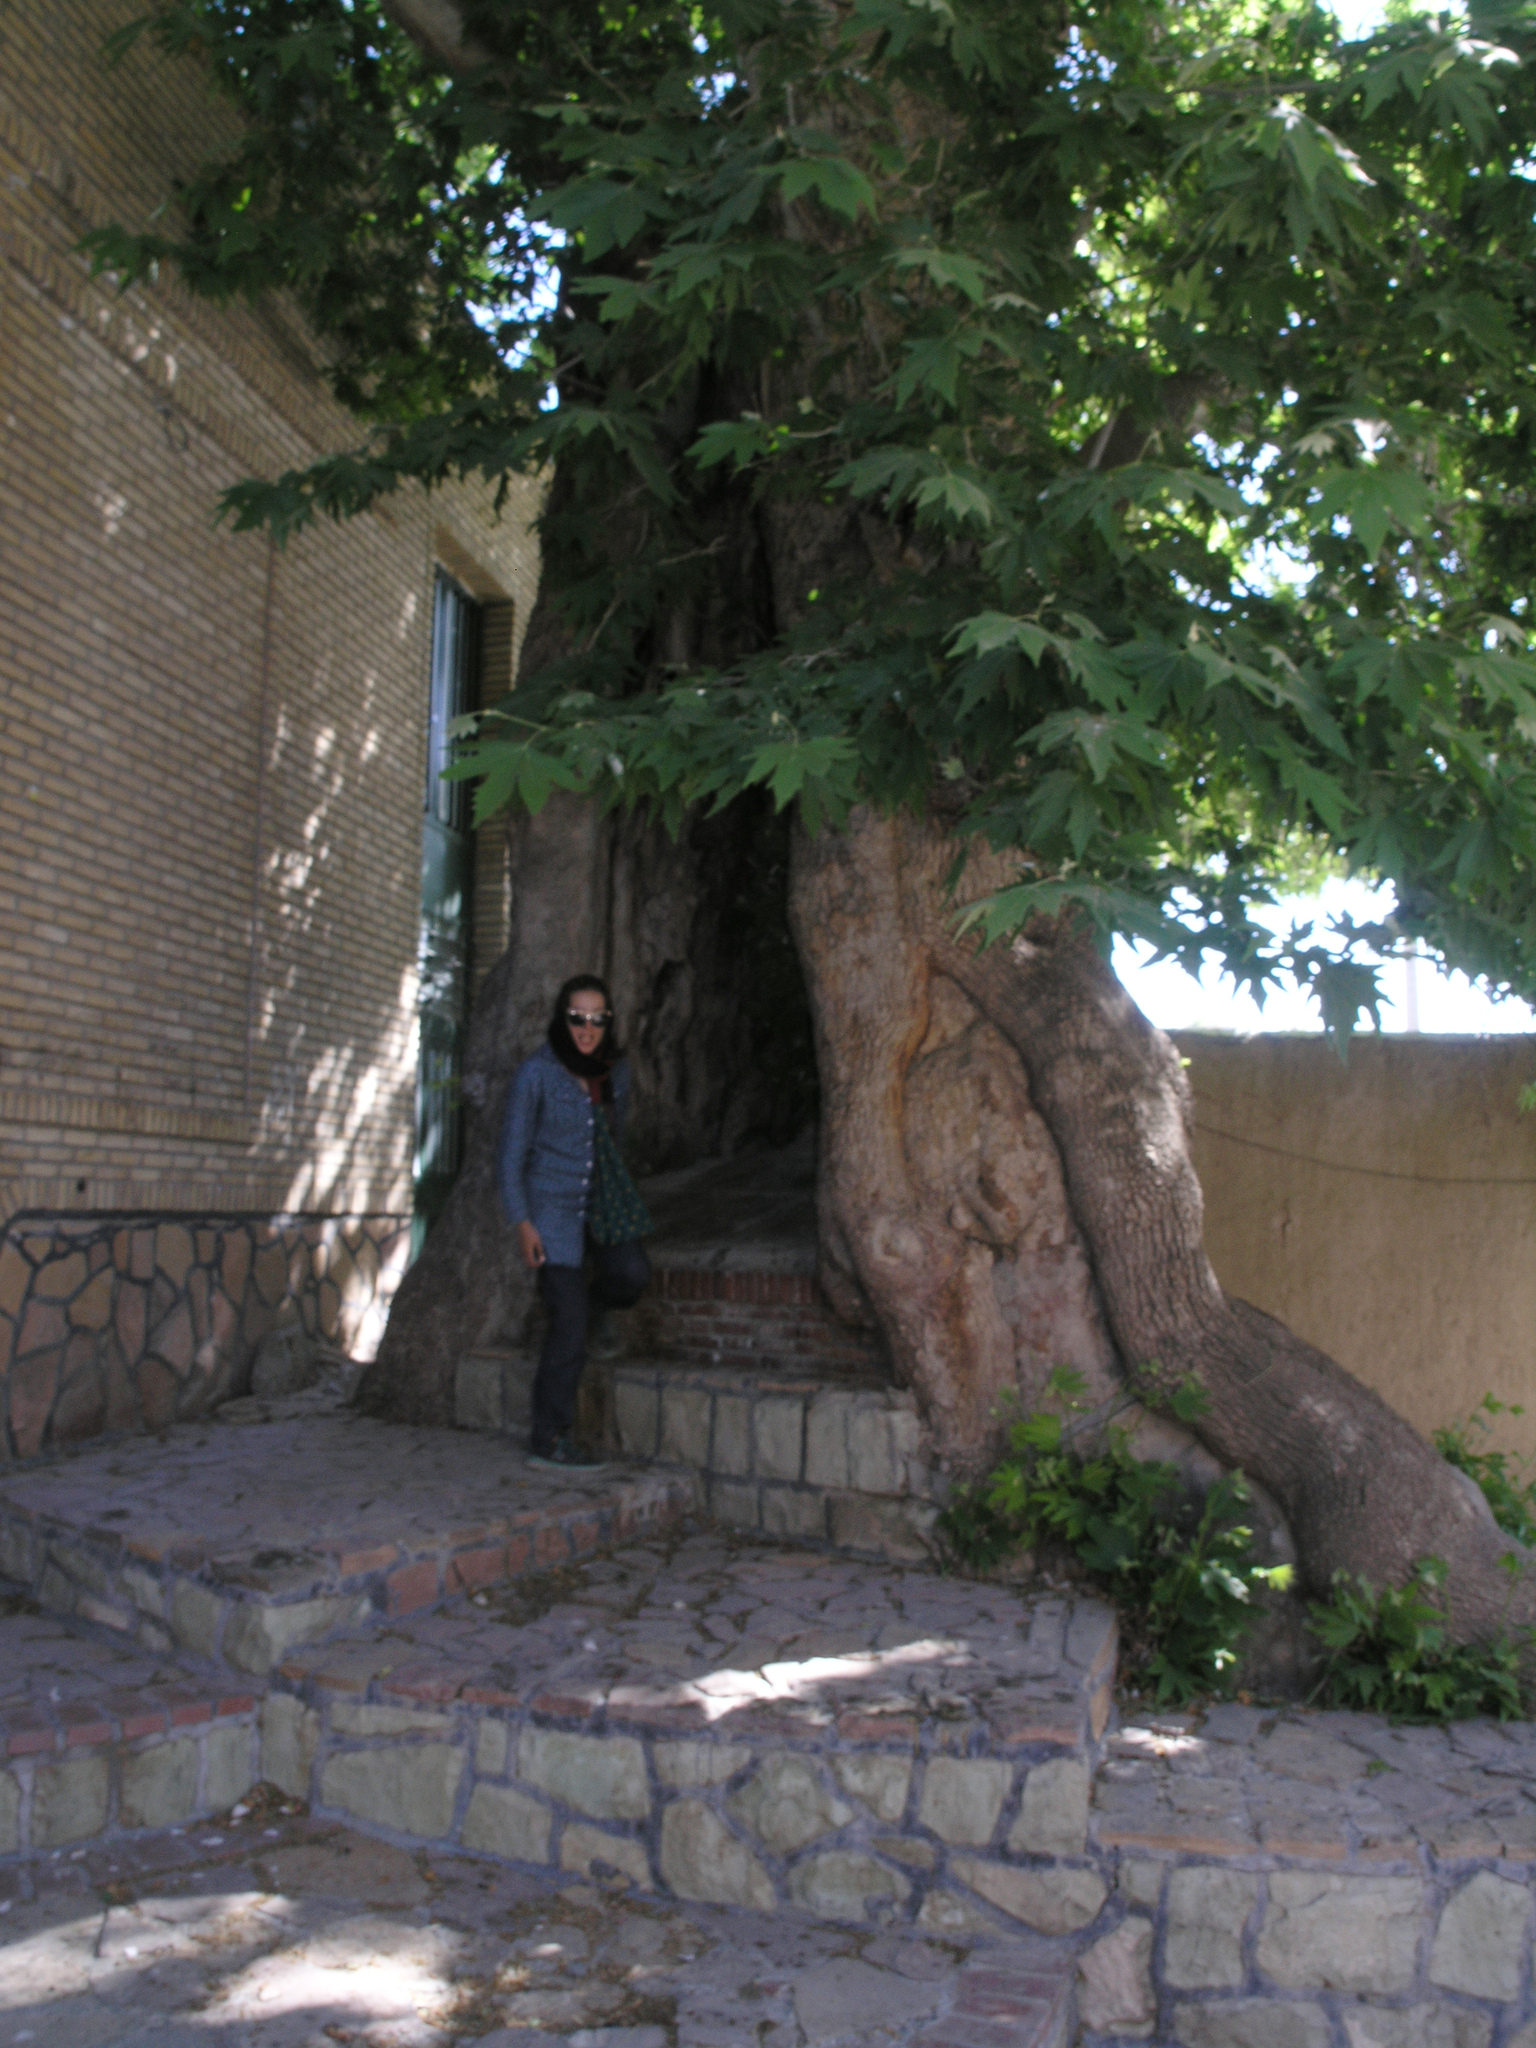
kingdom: Plantae
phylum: Tracheophyta
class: Magnoliopsida
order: Proteales
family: Platanaceae
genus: Platanus
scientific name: Platanus orientalis
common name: Oriental plane
